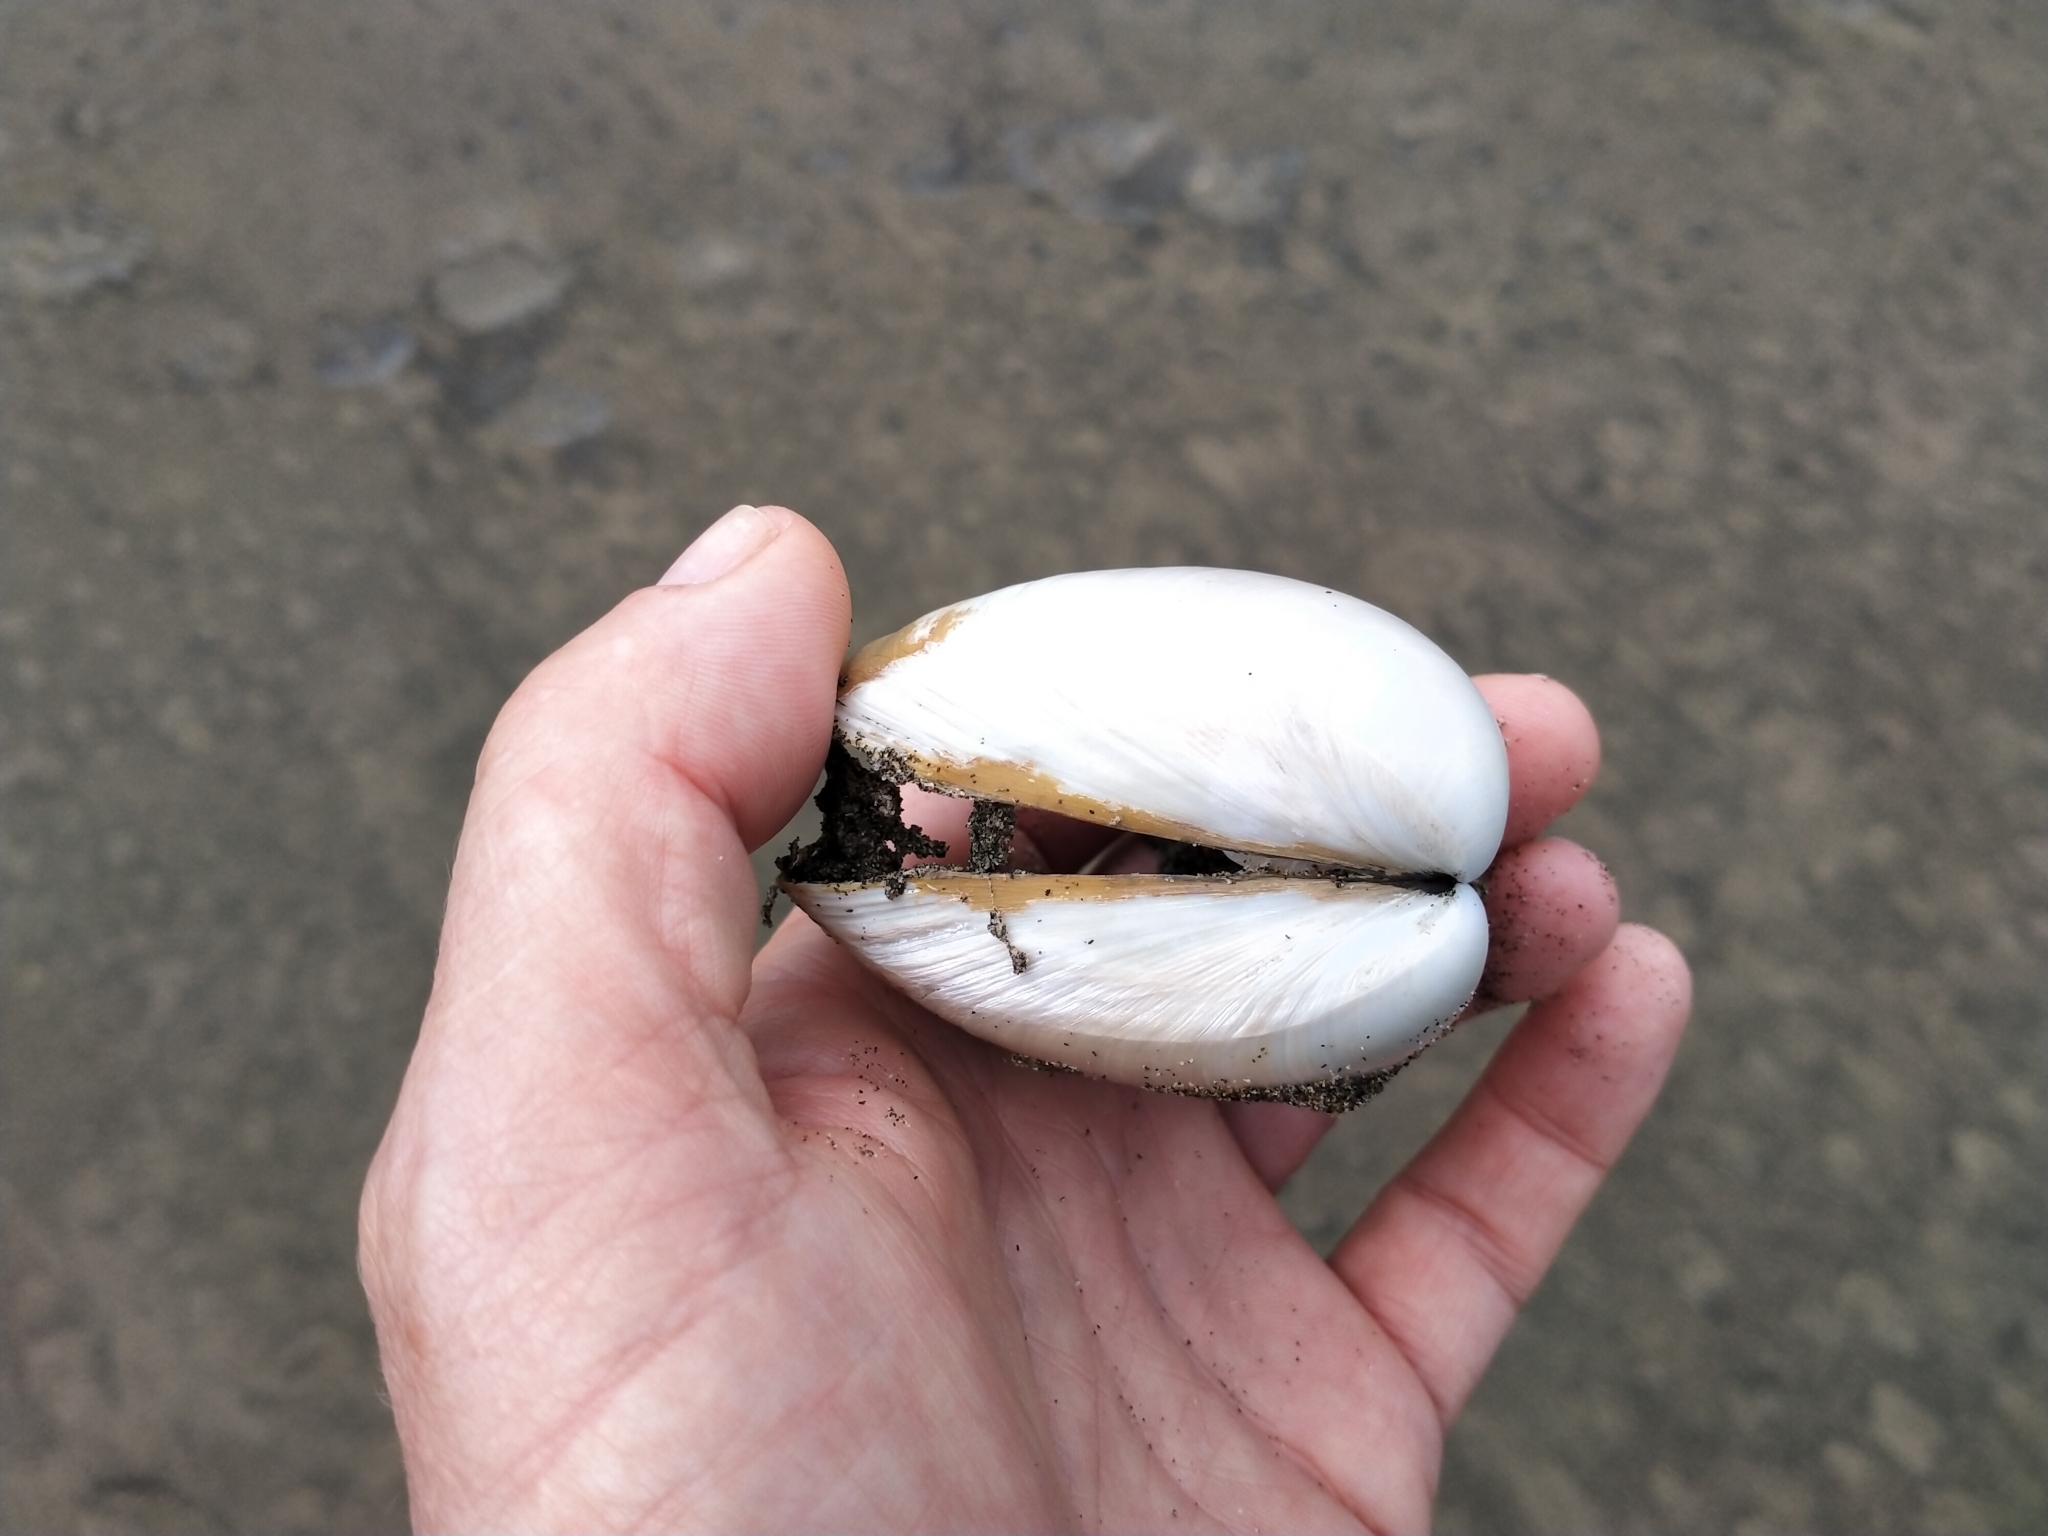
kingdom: Animalia
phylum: Mollusca
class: Bivalvia
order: Venerida
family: Mactridae
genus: Spisula
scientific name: Spisula discors
